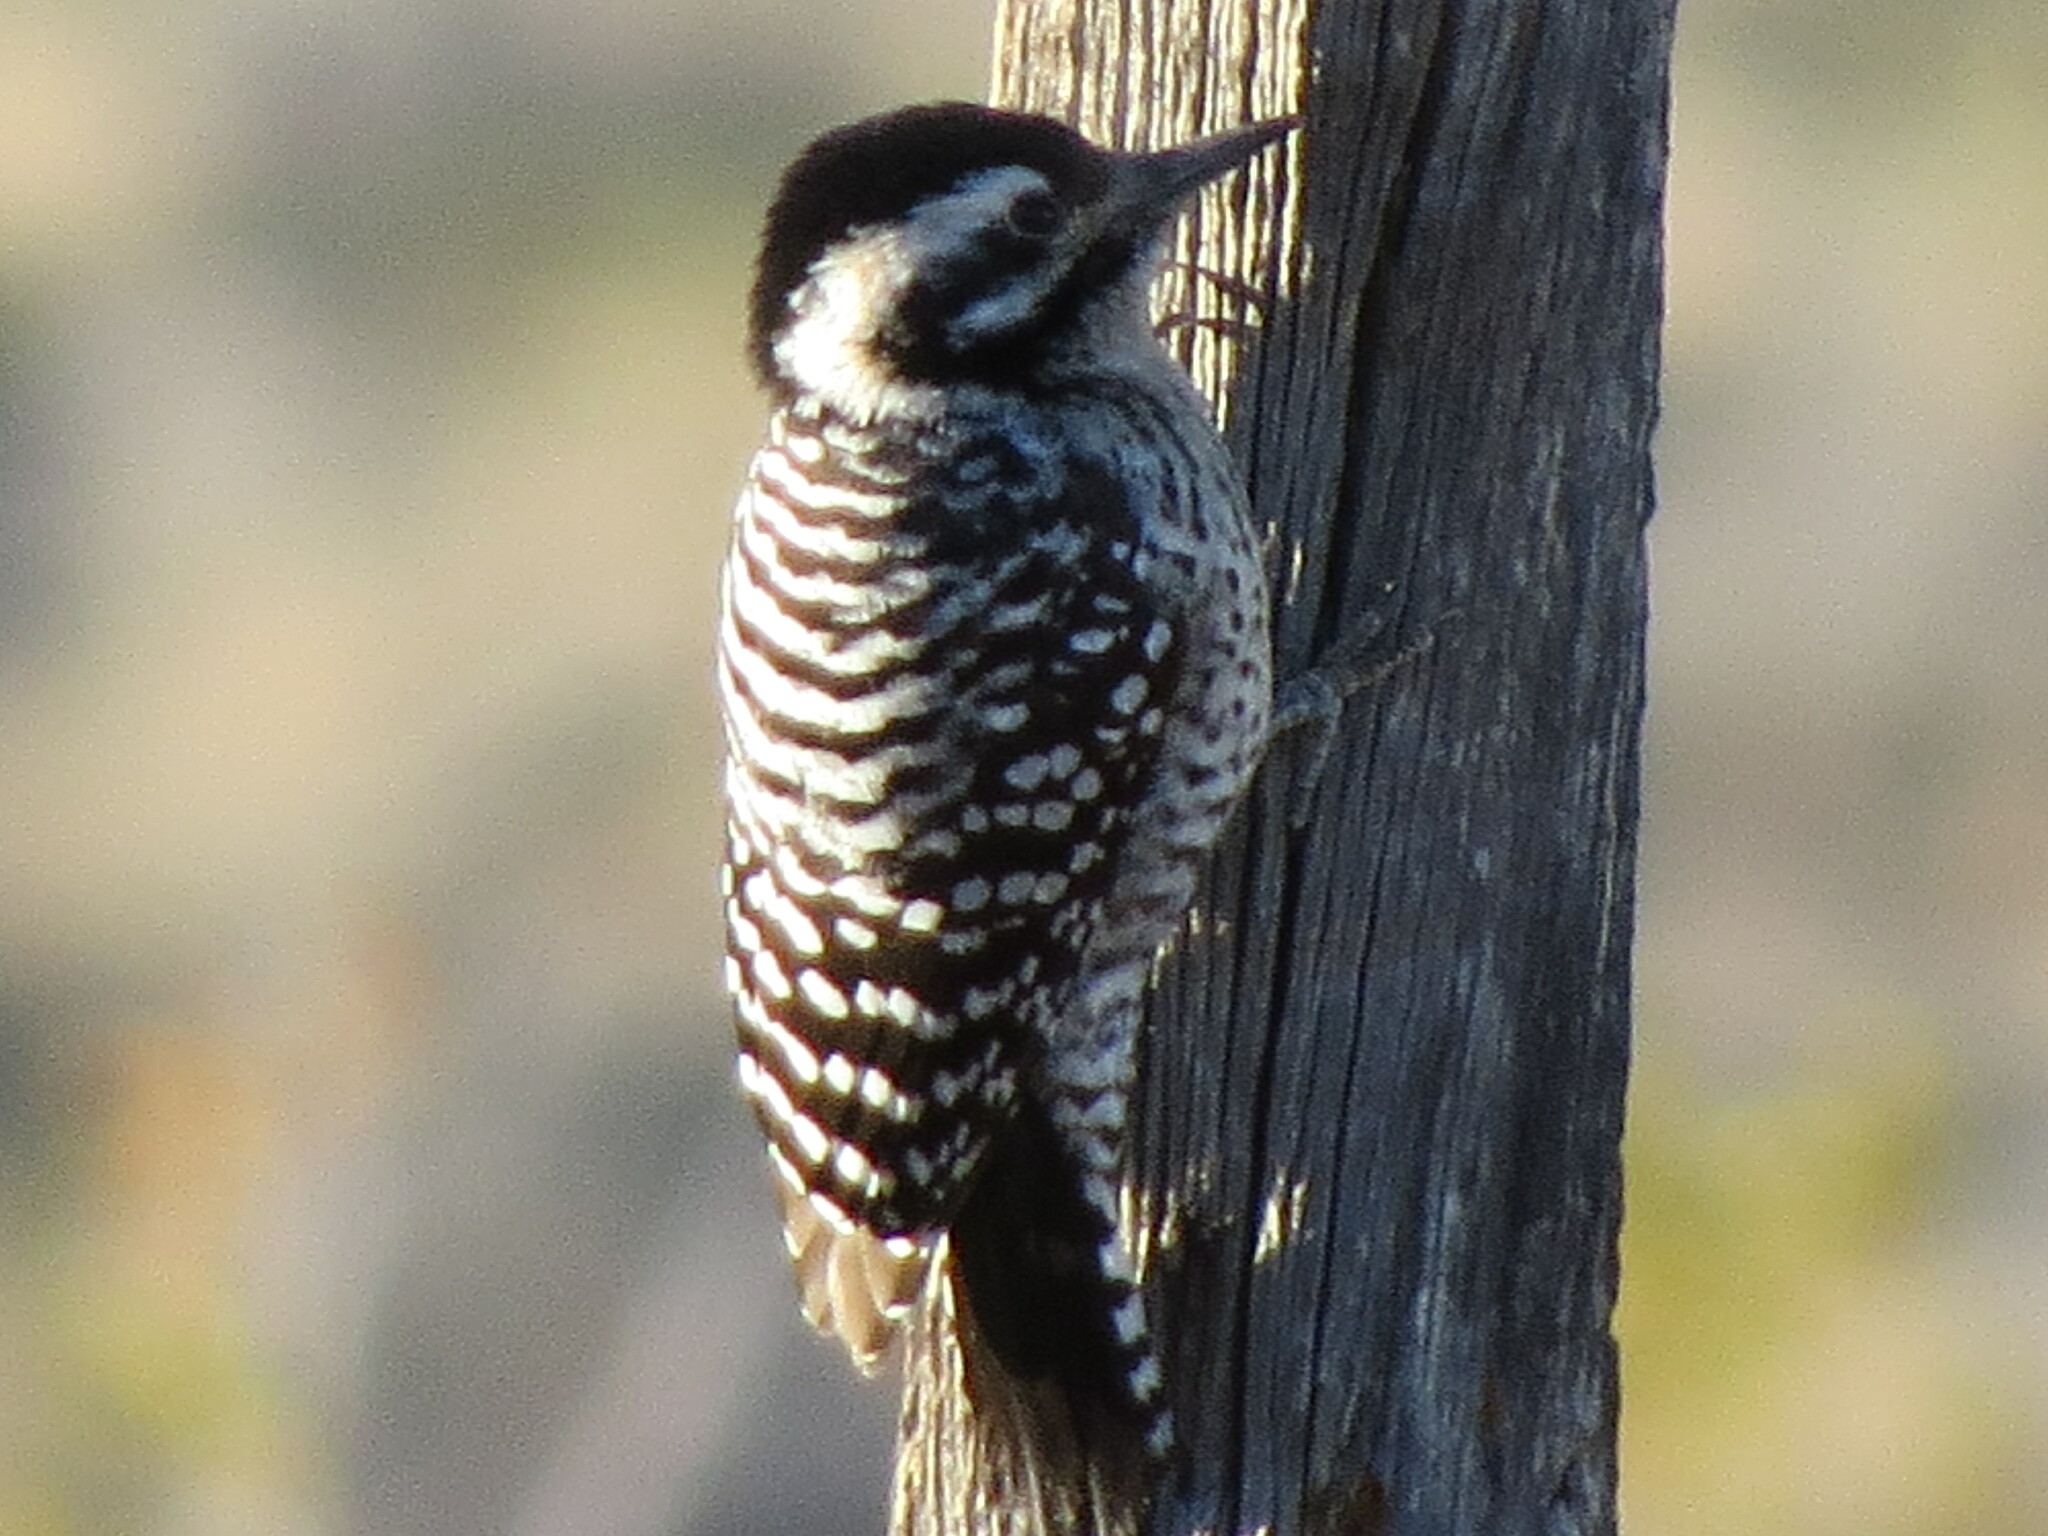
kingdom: Animalia
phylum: Chordata
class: Aves
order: Piciformes
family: Picidae
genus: Dryobates
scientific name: Dryobates scalaris
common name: Ladder-backed woodpecker
